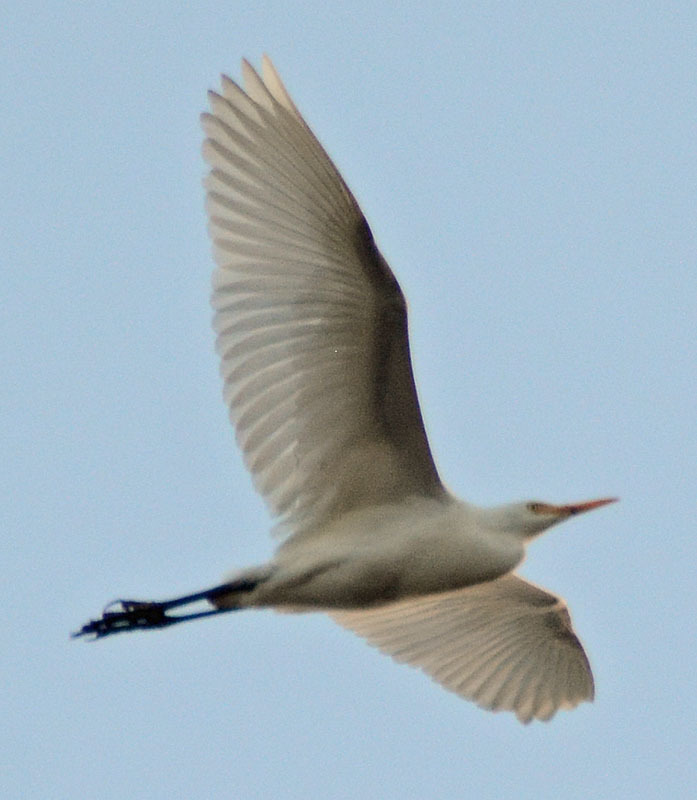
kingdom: Animalia
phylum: Chordata
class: Aves
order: Pelecaniformes
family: Ardeidae
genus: Ardea
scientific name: Ardea alba
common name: Great egret
